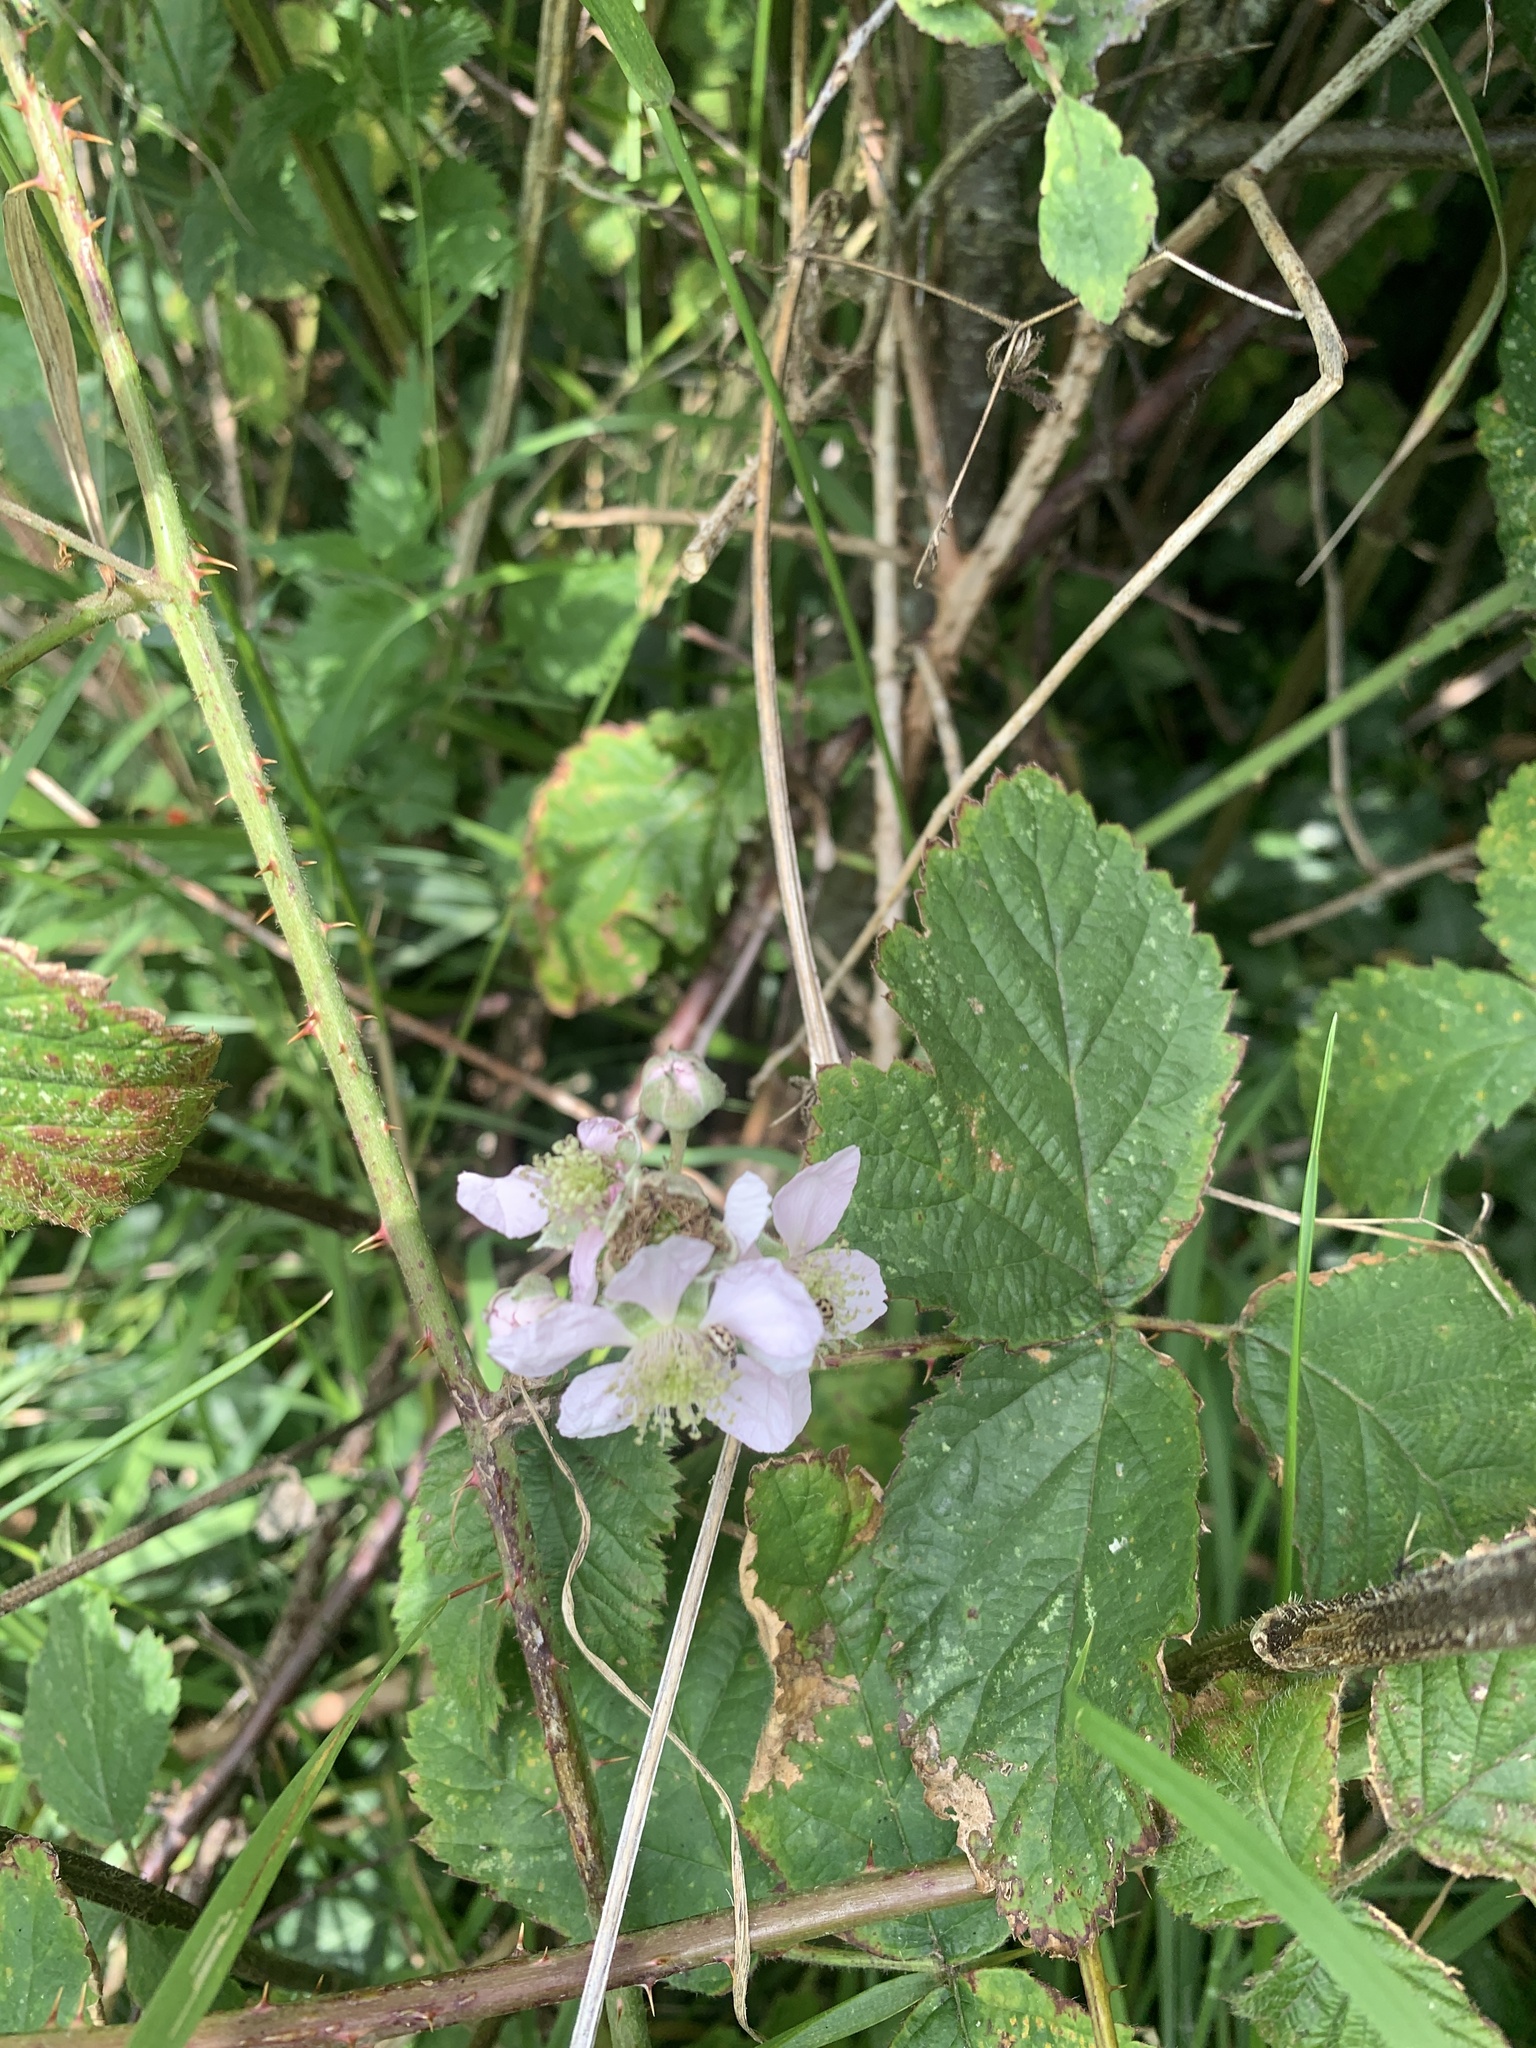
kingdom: Plantae
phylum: Tracheophyta
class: Magnoliopsida
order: Rosales
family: Rosaceae
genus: Rubus
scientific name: Rubus fruticosus
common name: Blackberry, bramble
